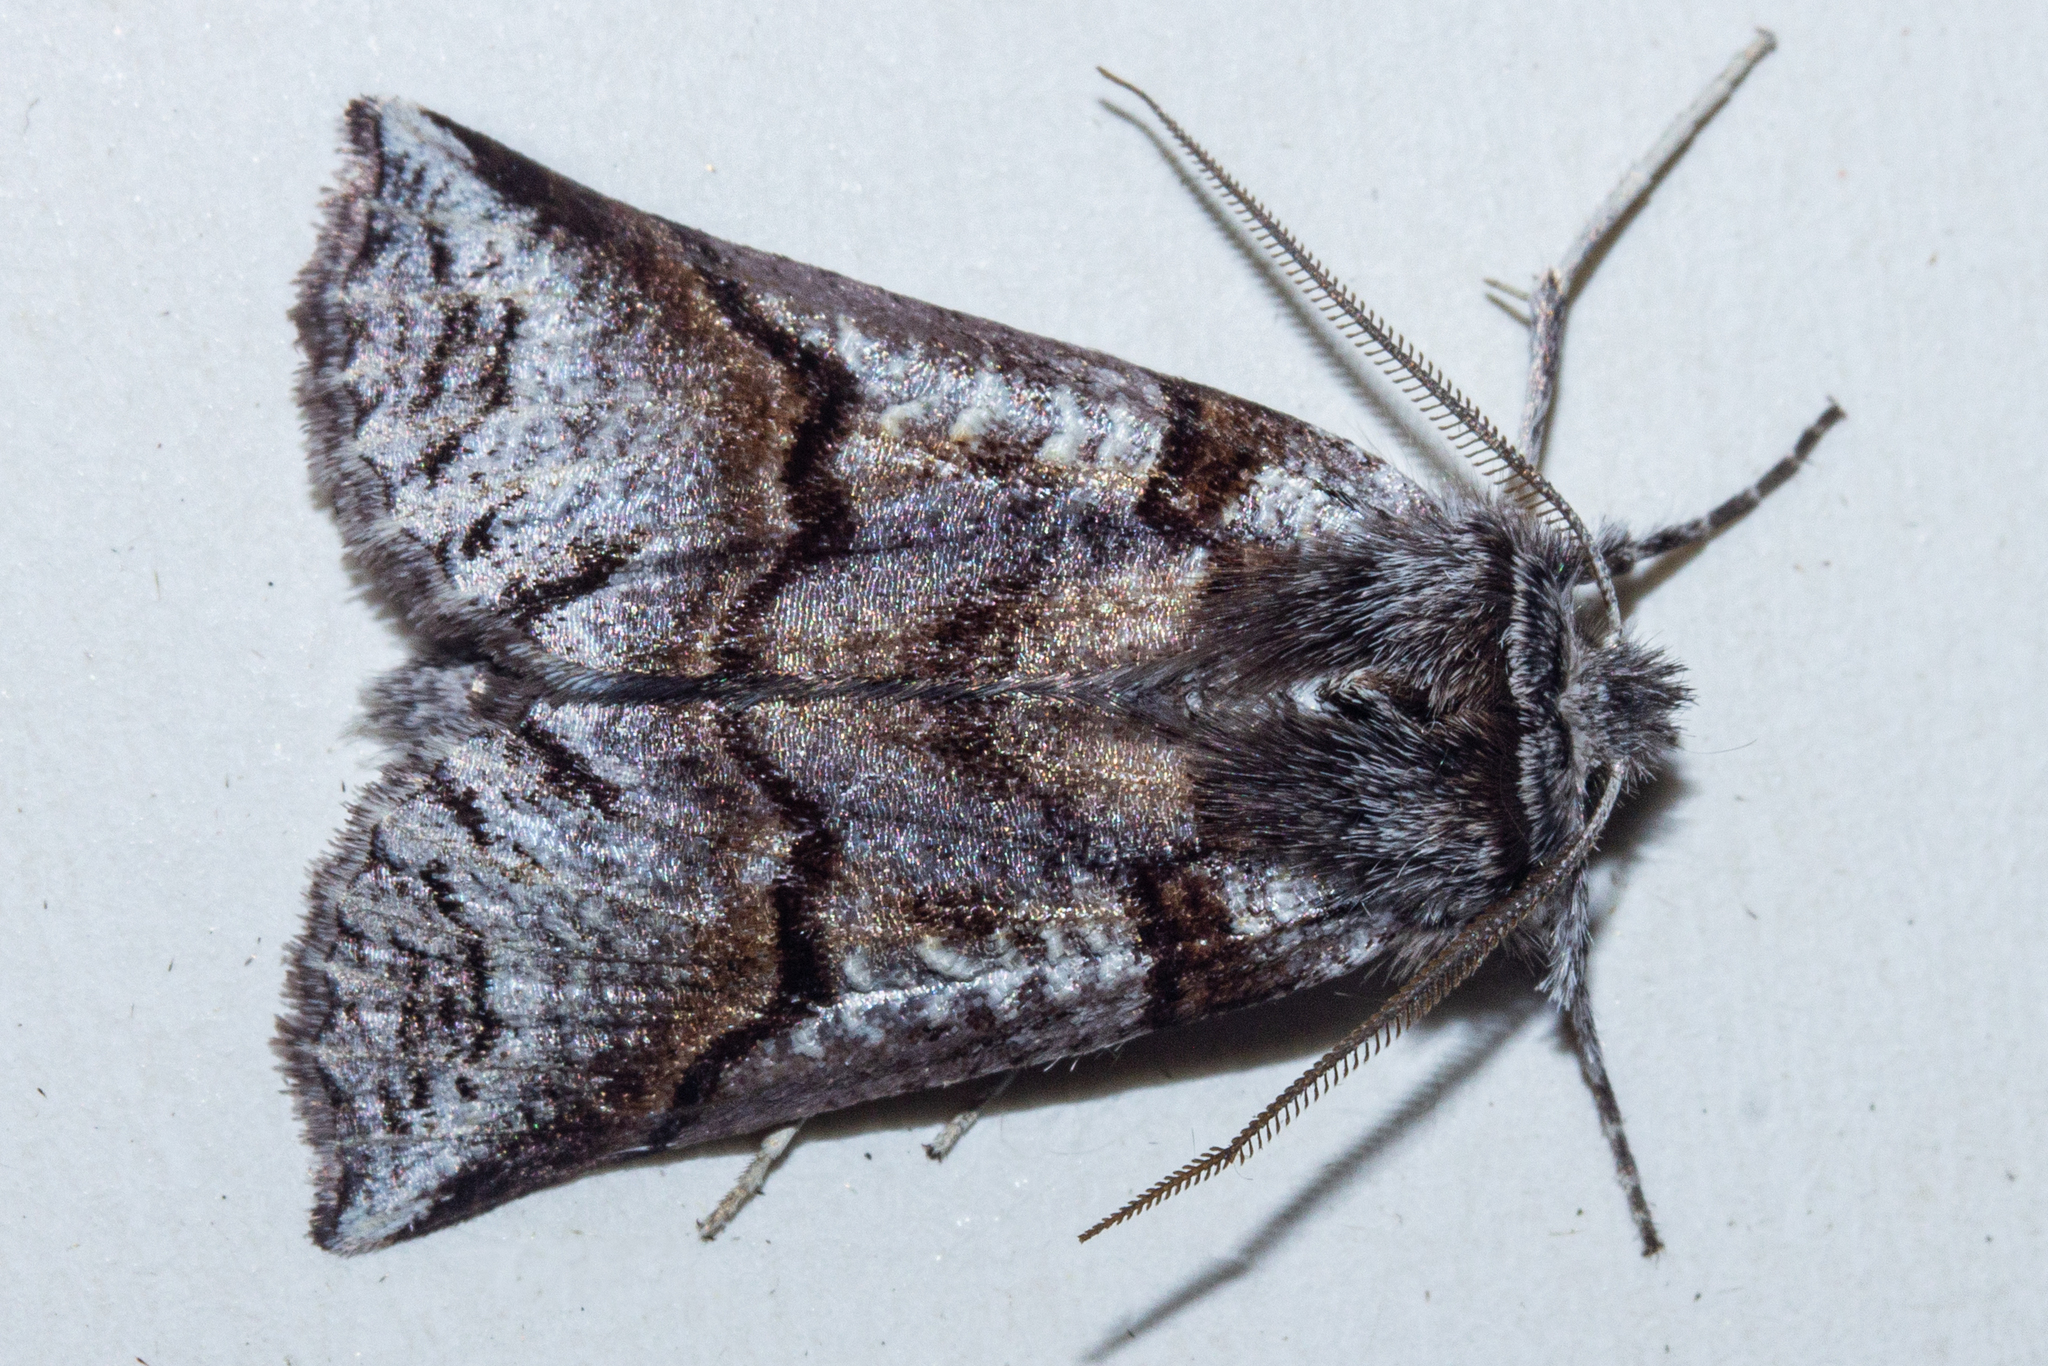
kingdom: Animalia
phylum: Arthropoda
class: Insecta
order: Lepidoptera
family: Geometridae
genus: Declana
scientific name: Declana
